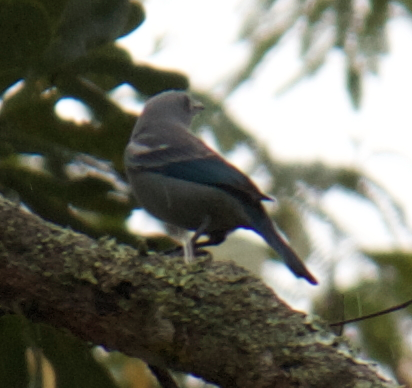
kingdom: Animalia
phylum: Chordata
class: Aves
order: Passeriformes
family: Thraupidae
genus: Thraupis
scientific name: Thraupis episcopus
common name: Blue-grey tanager
